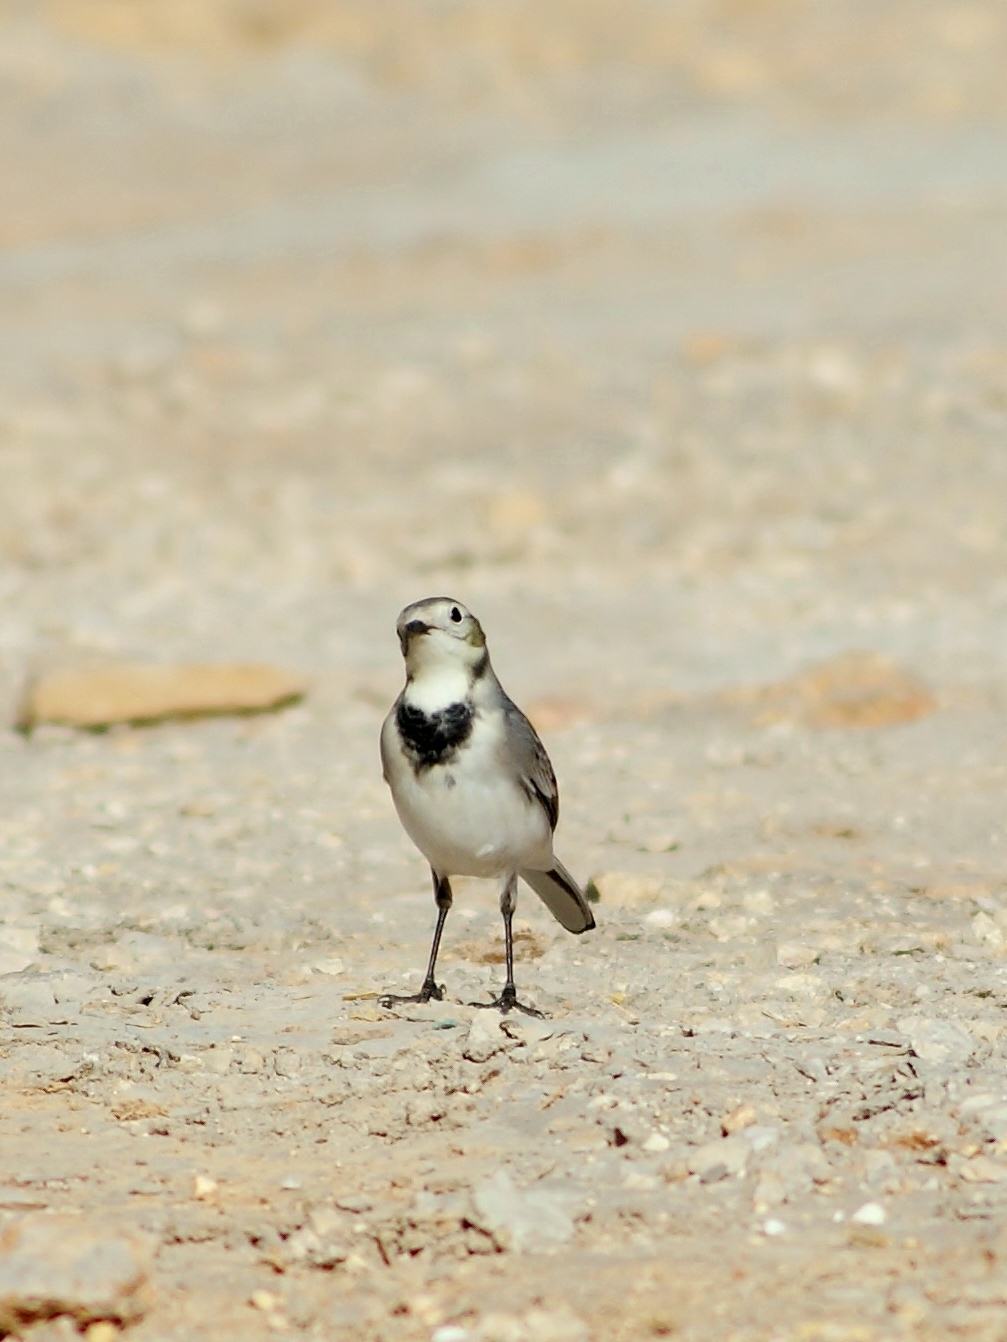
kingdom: Animalia
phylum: Chordata
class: Aves
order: Passeriformes
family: Motacillidae
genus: Motacilla
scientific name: Motacilla alba
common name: White wagtail
